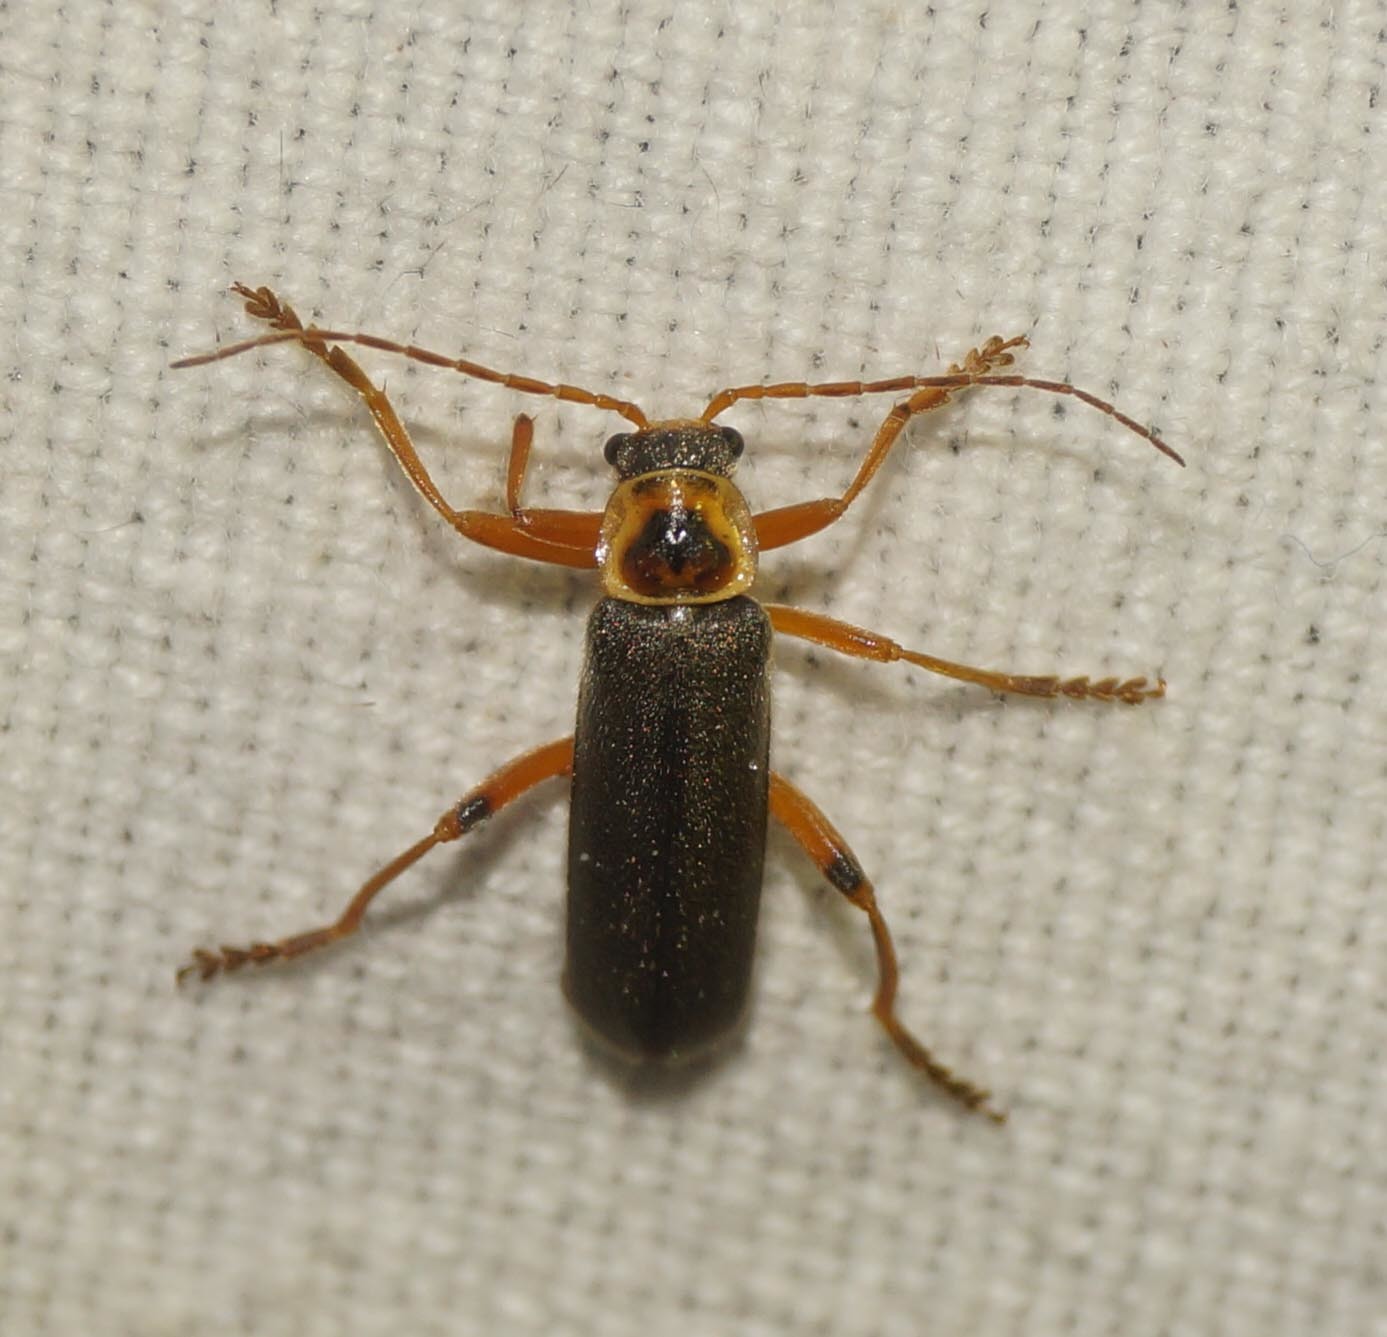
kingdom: Animalia
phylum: Arthropoda
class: Insecta
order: Coleoptera
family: Cantharidae
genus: Cantharis
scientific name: Cantharis nigricans
